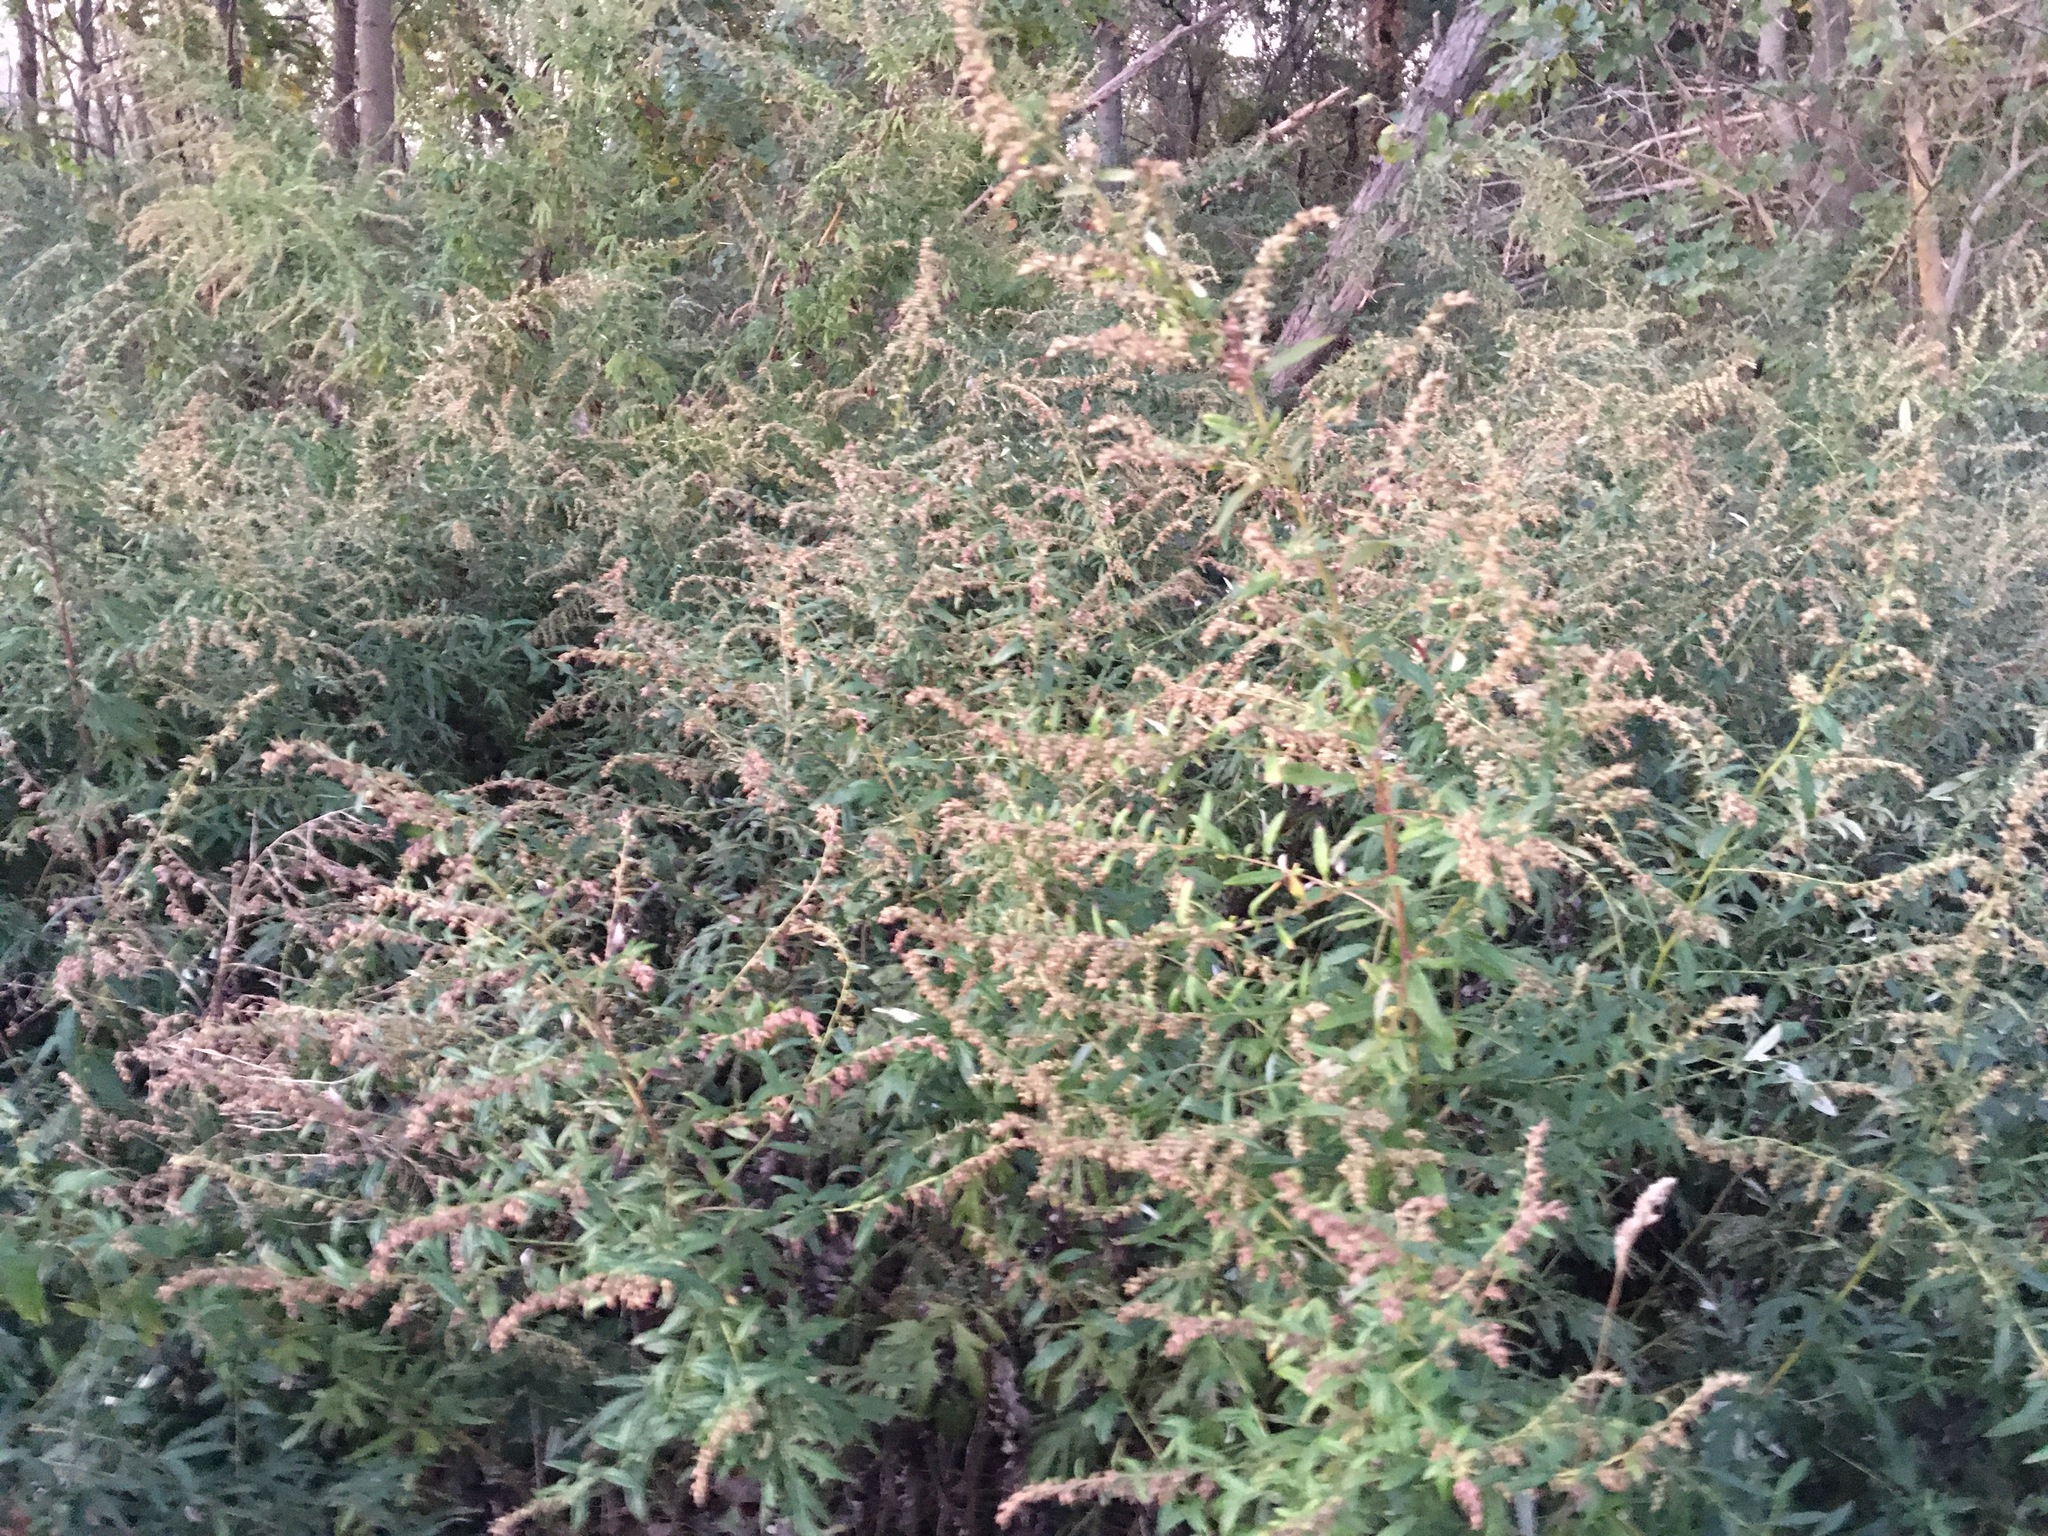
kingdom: Plantae
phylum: Tracheophyta
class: Magnoliopsida
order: Asterales
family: Asteraceae
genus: Artemisia
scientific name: Artemisia vulgaris
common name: Mugwort
